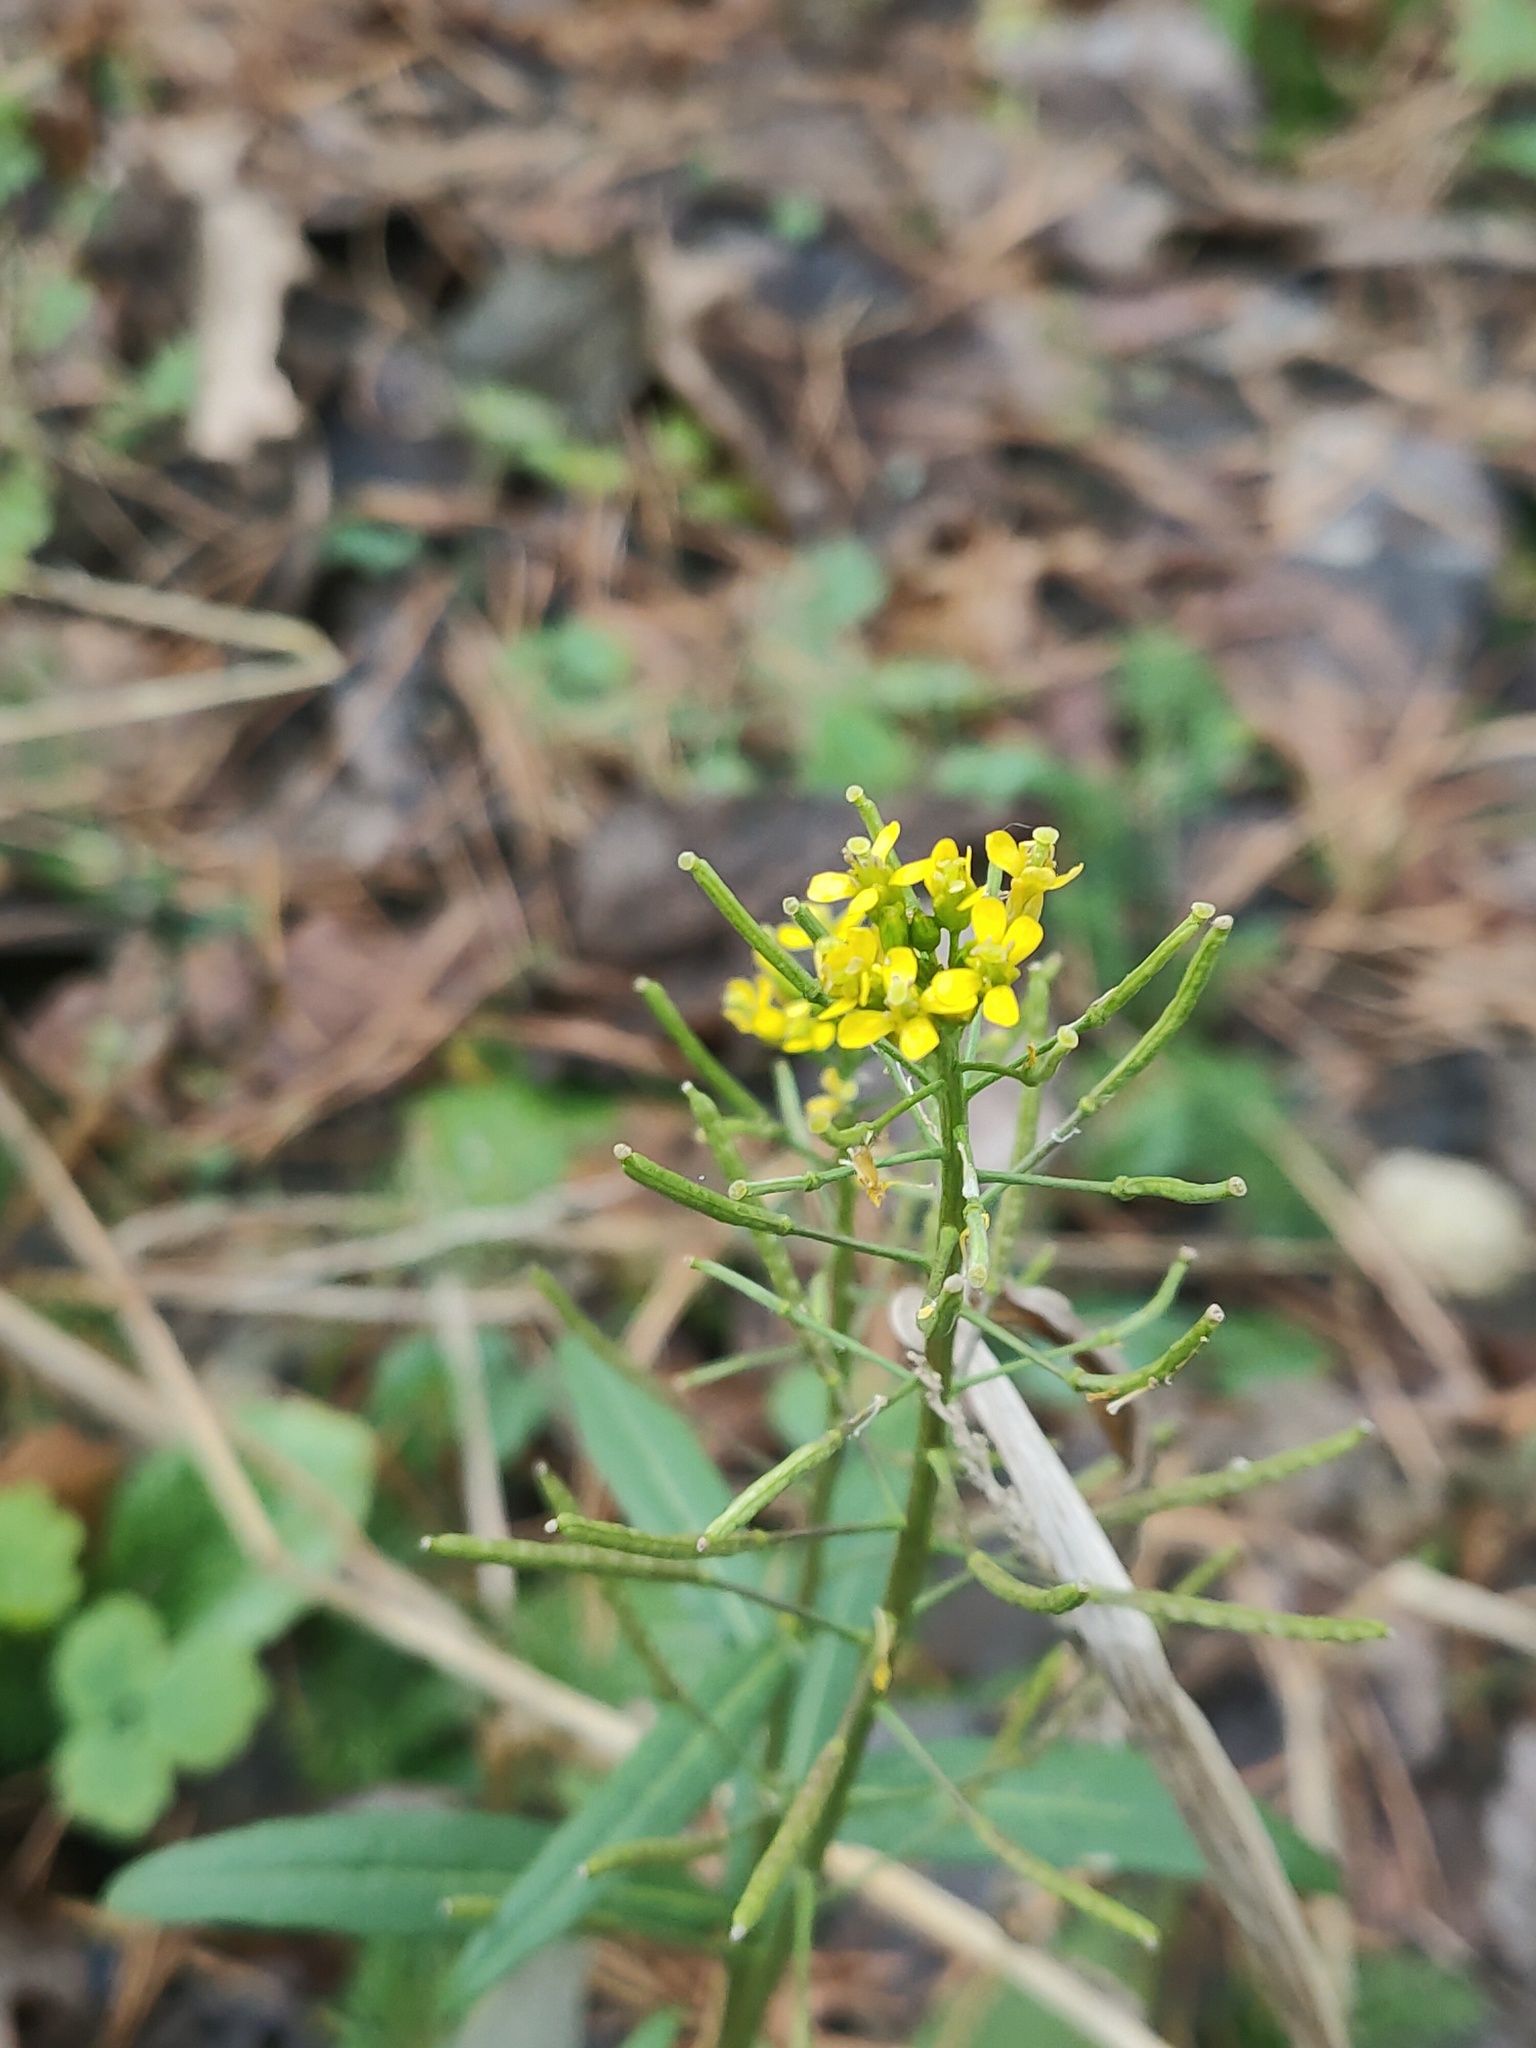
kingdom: Plantae
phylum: Tracheophyta
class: Magnoliopsida
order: Brassicales
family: Brassicaceae
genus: Erysimum
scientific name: Erysimum cheiranthoides
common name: Treacle mustard
